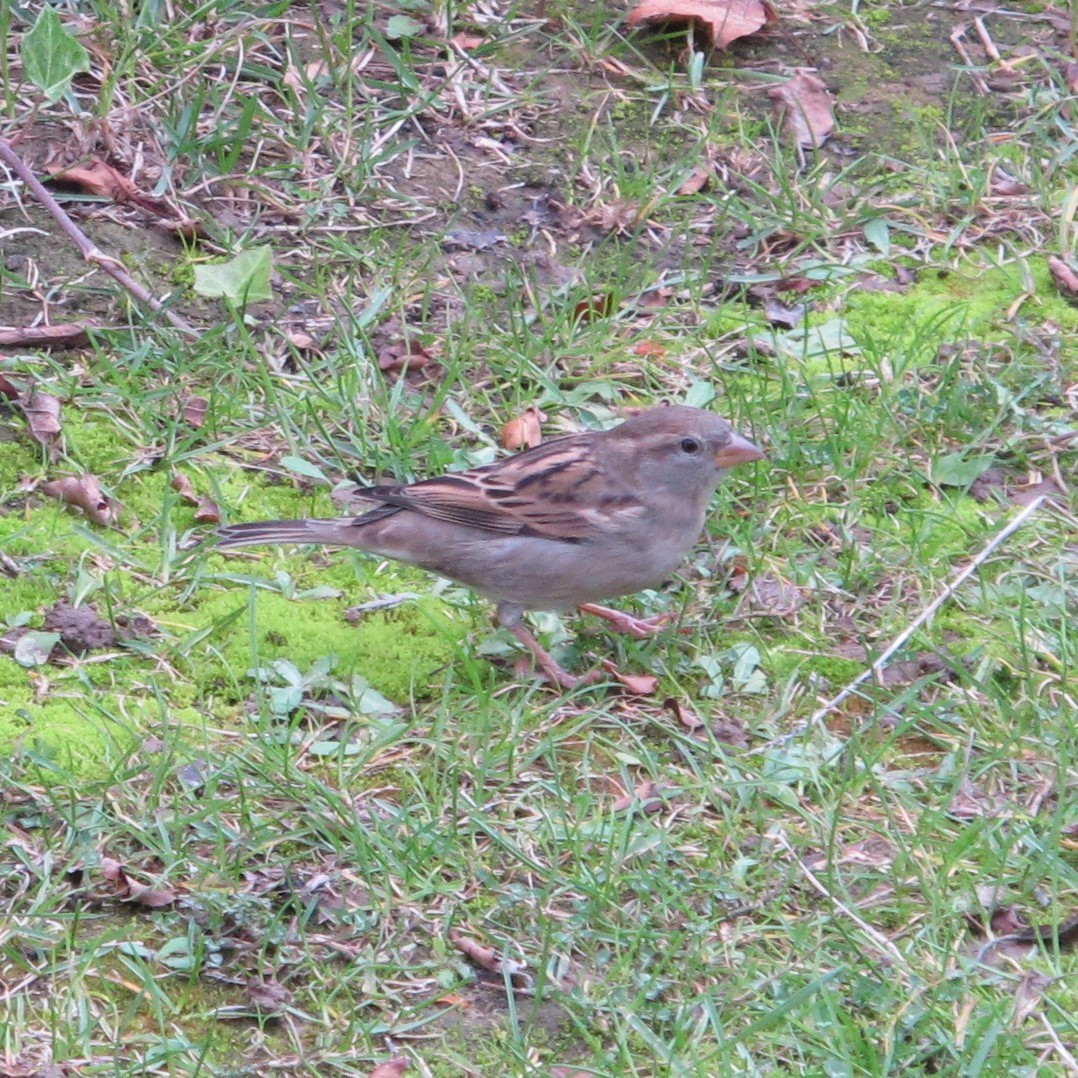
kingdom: Animalia
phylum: Chordata
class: Aves
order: Passeriformes
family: Passeridae
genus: Passer
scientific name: Passer domesticus
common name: House sparrow
